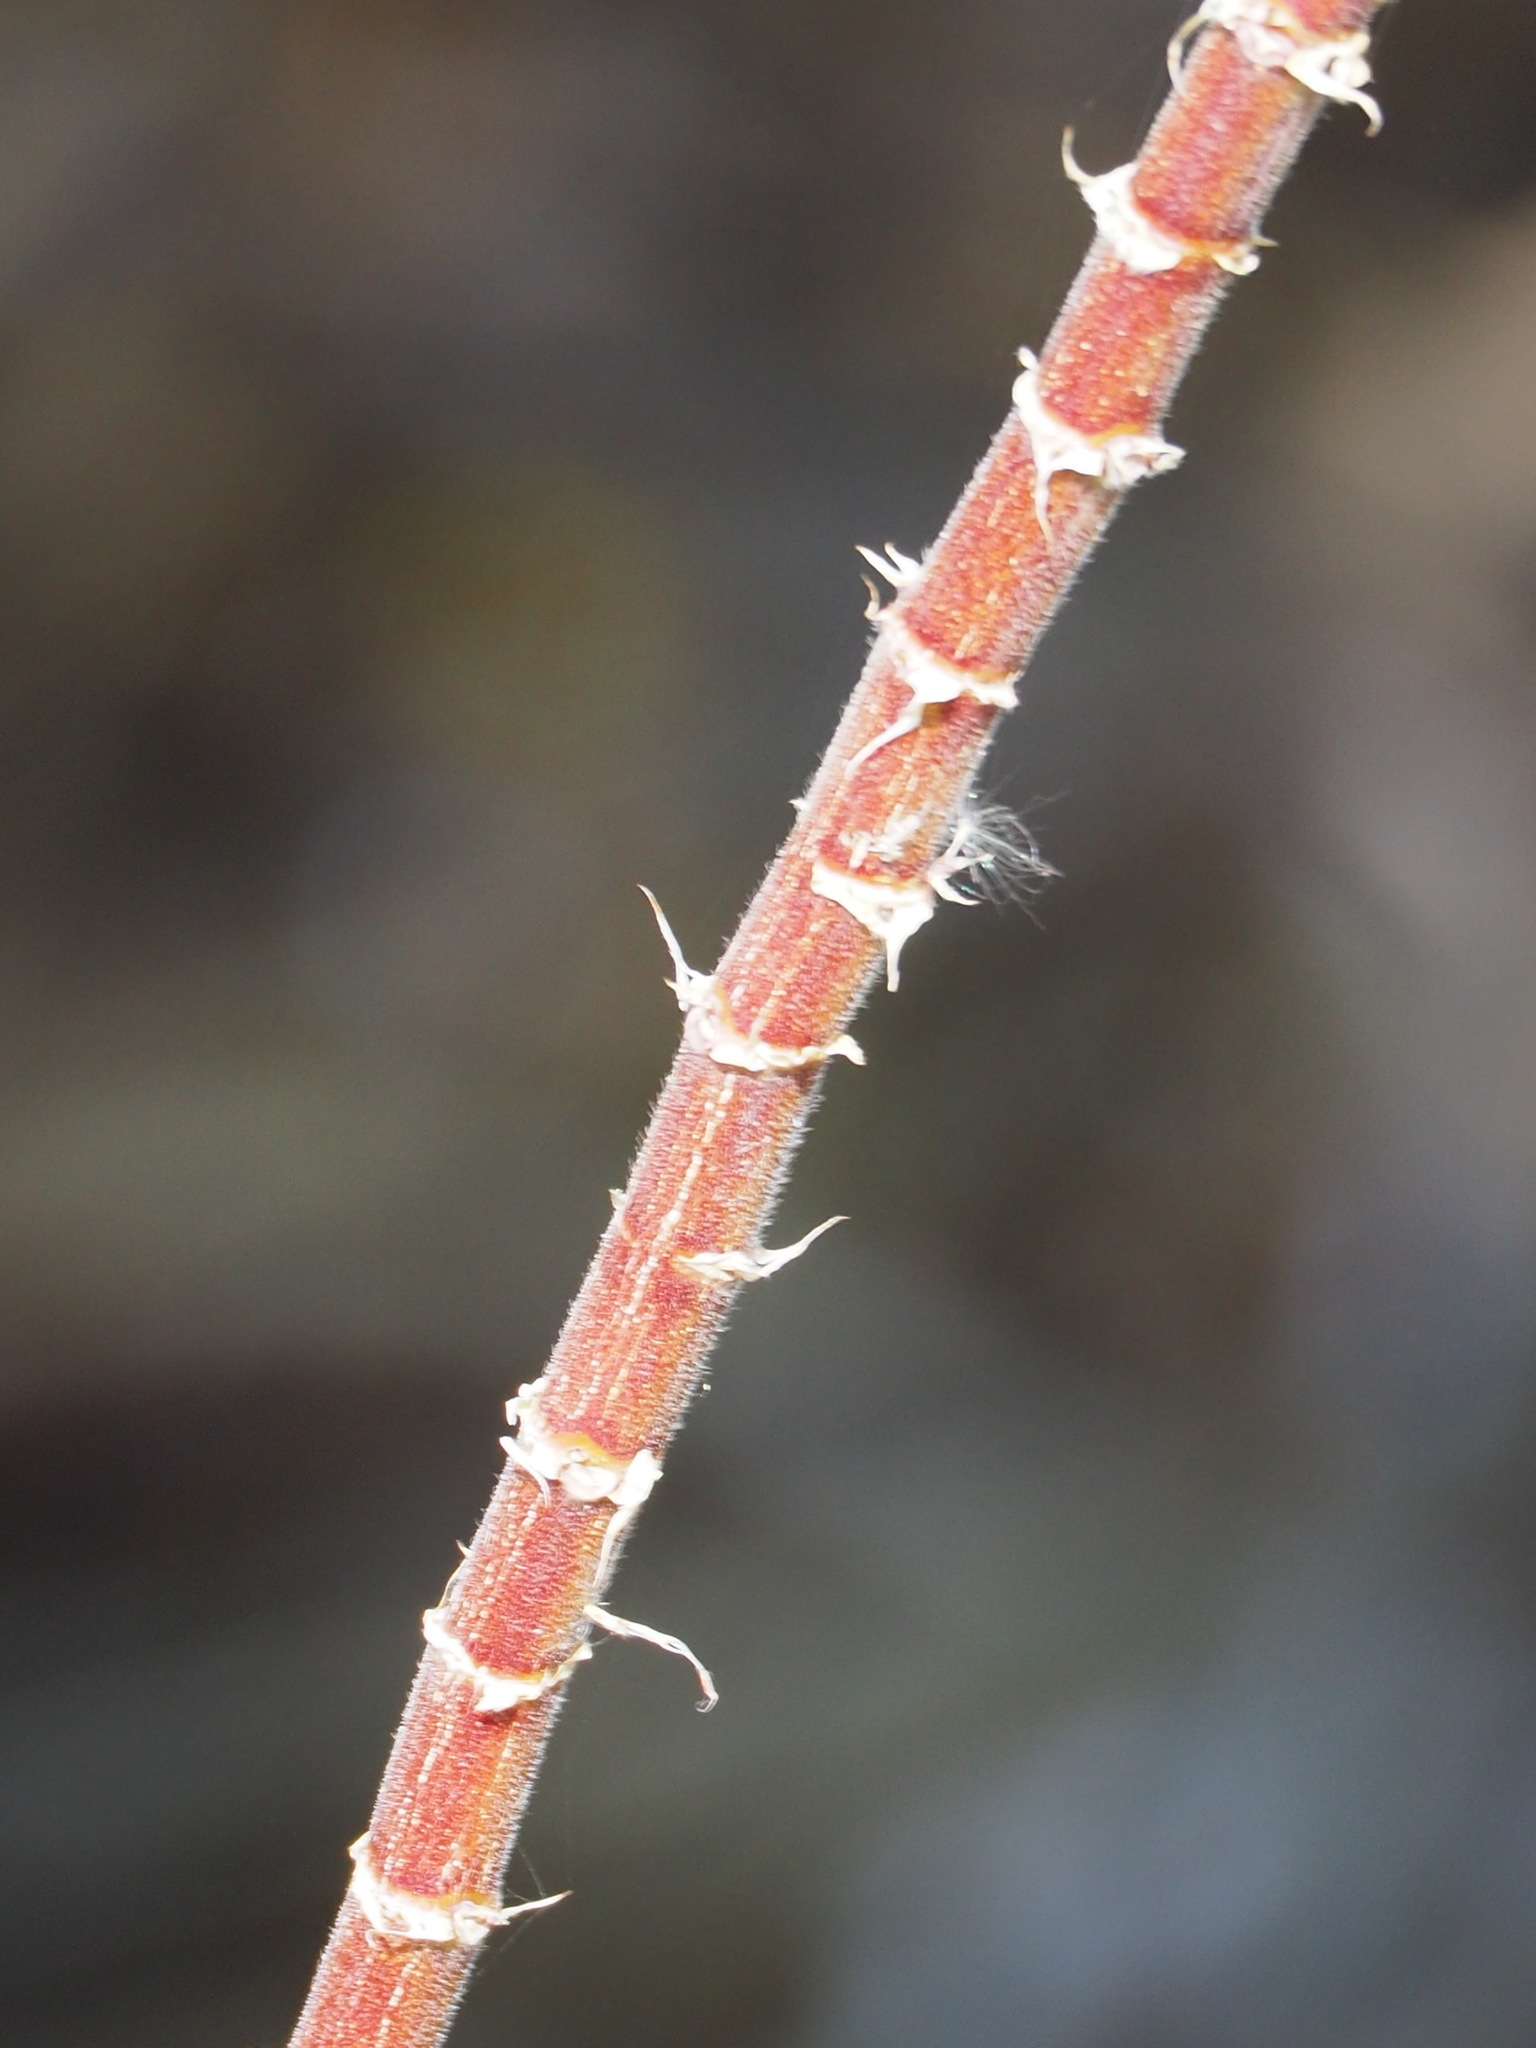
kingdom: Plantae
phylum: Tracheophyta
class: Magnoliopsida
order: Fabales
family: Fabaceae
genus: Desmodium
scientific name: Desmodium tortuosum
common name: Dixie ticktrefoil
